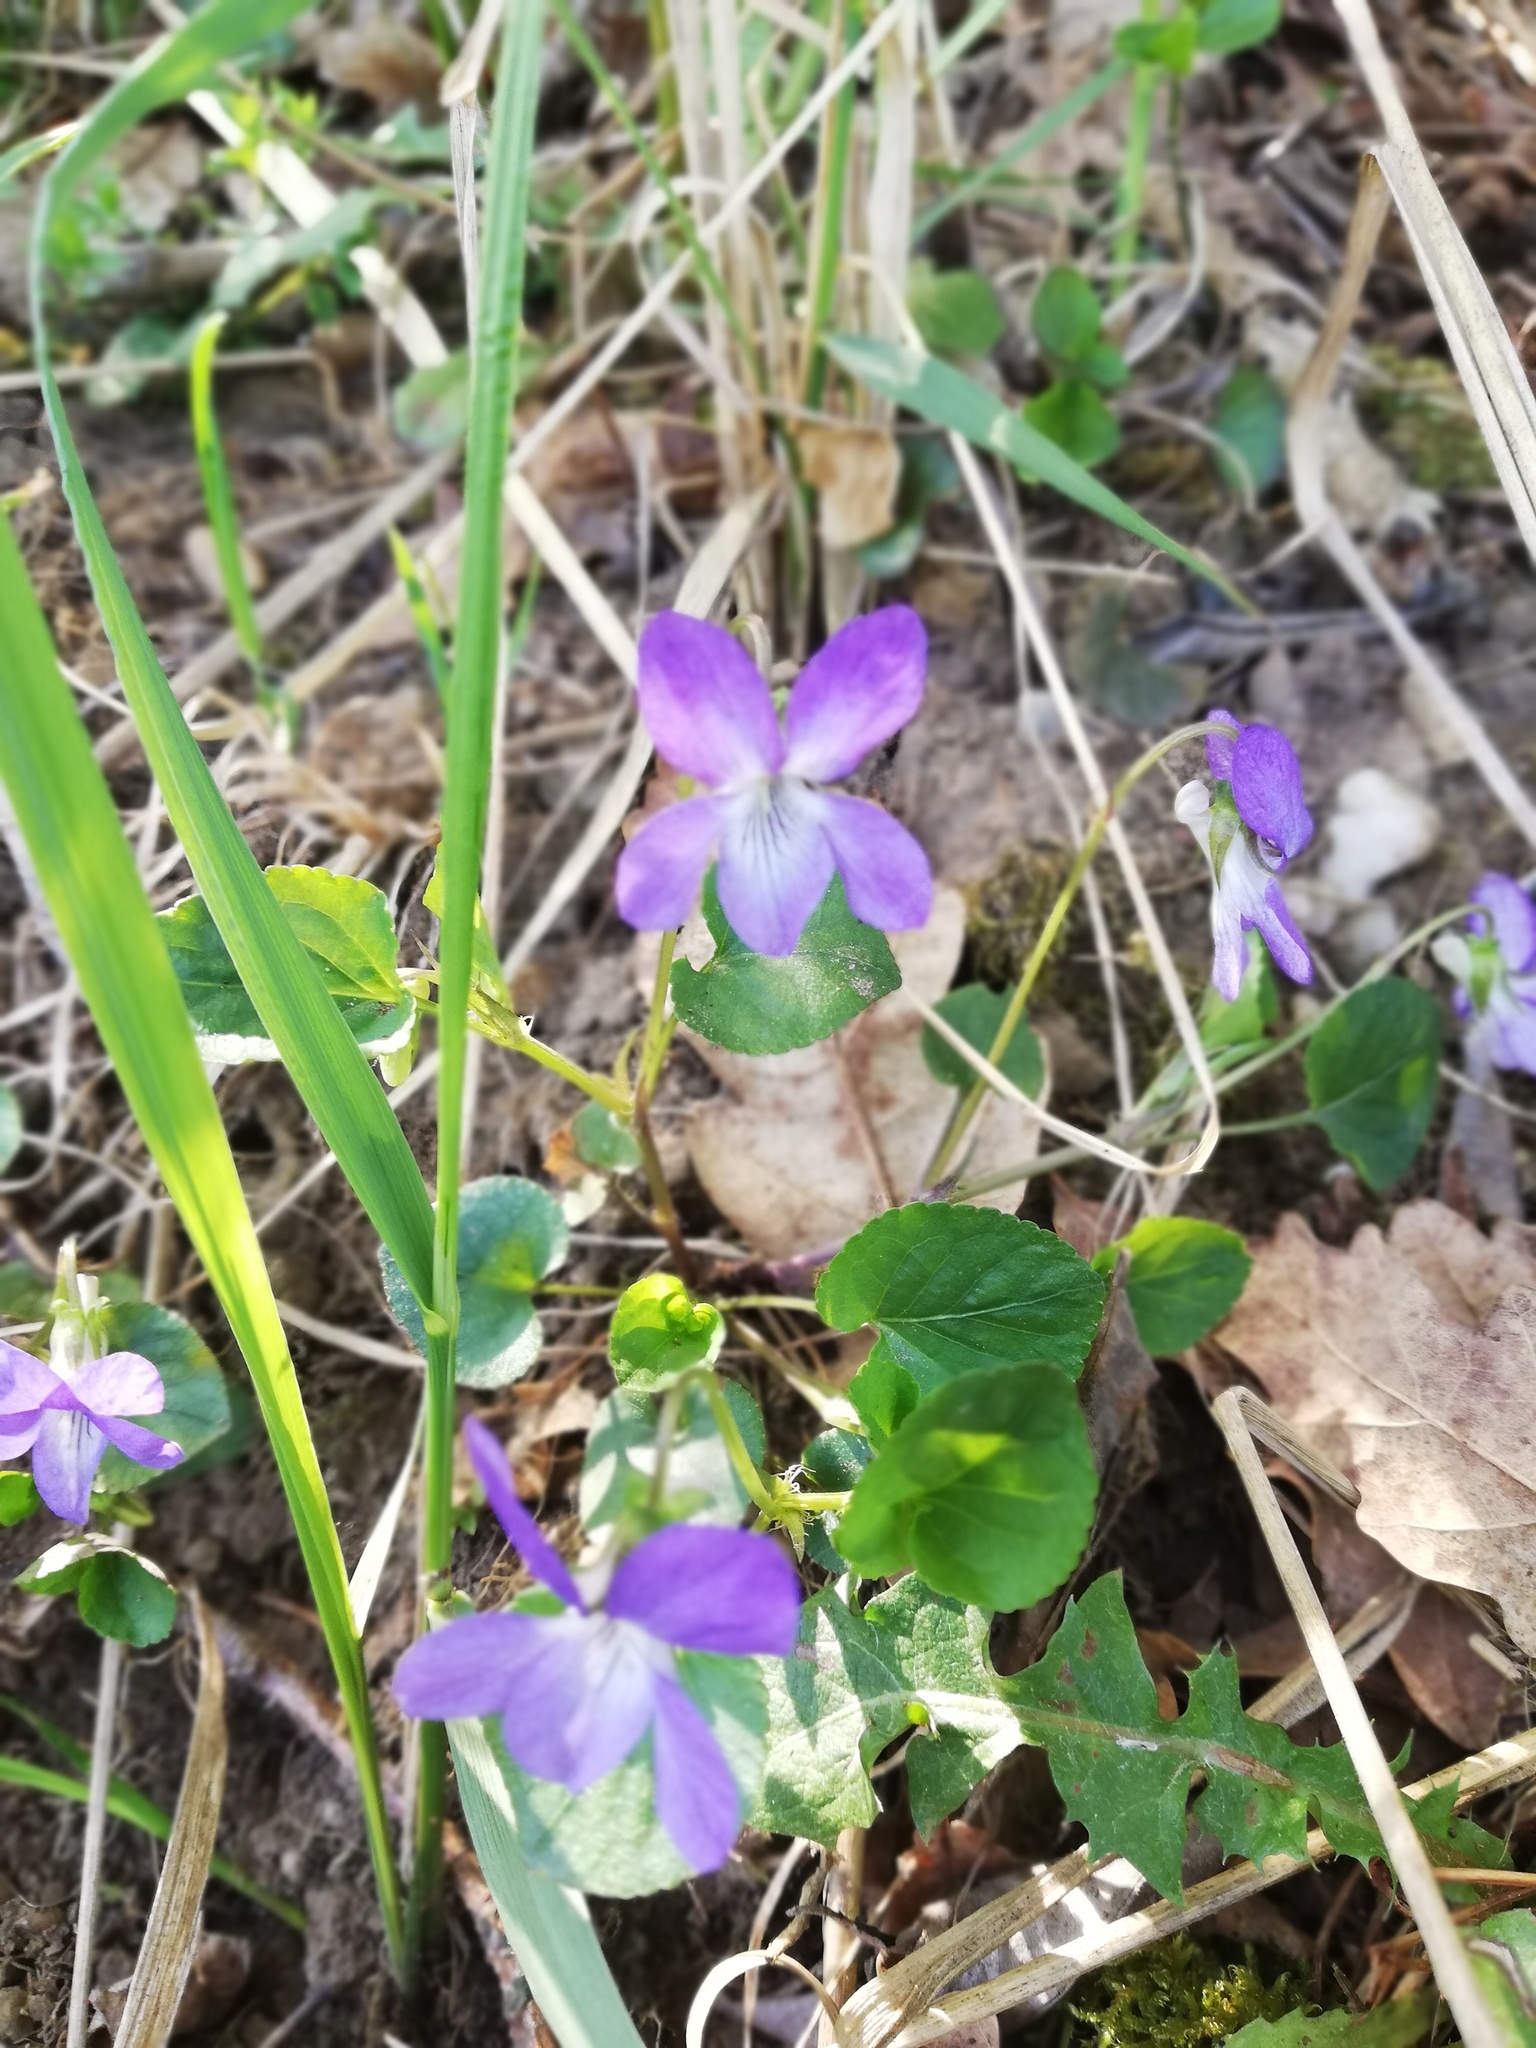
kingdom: Plantae
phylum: Tracheophyta
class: Magnoliopsida
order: Malpighiales
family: Violaceae
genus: Viola
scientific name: Viola riviniana
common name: Common dog-violet
